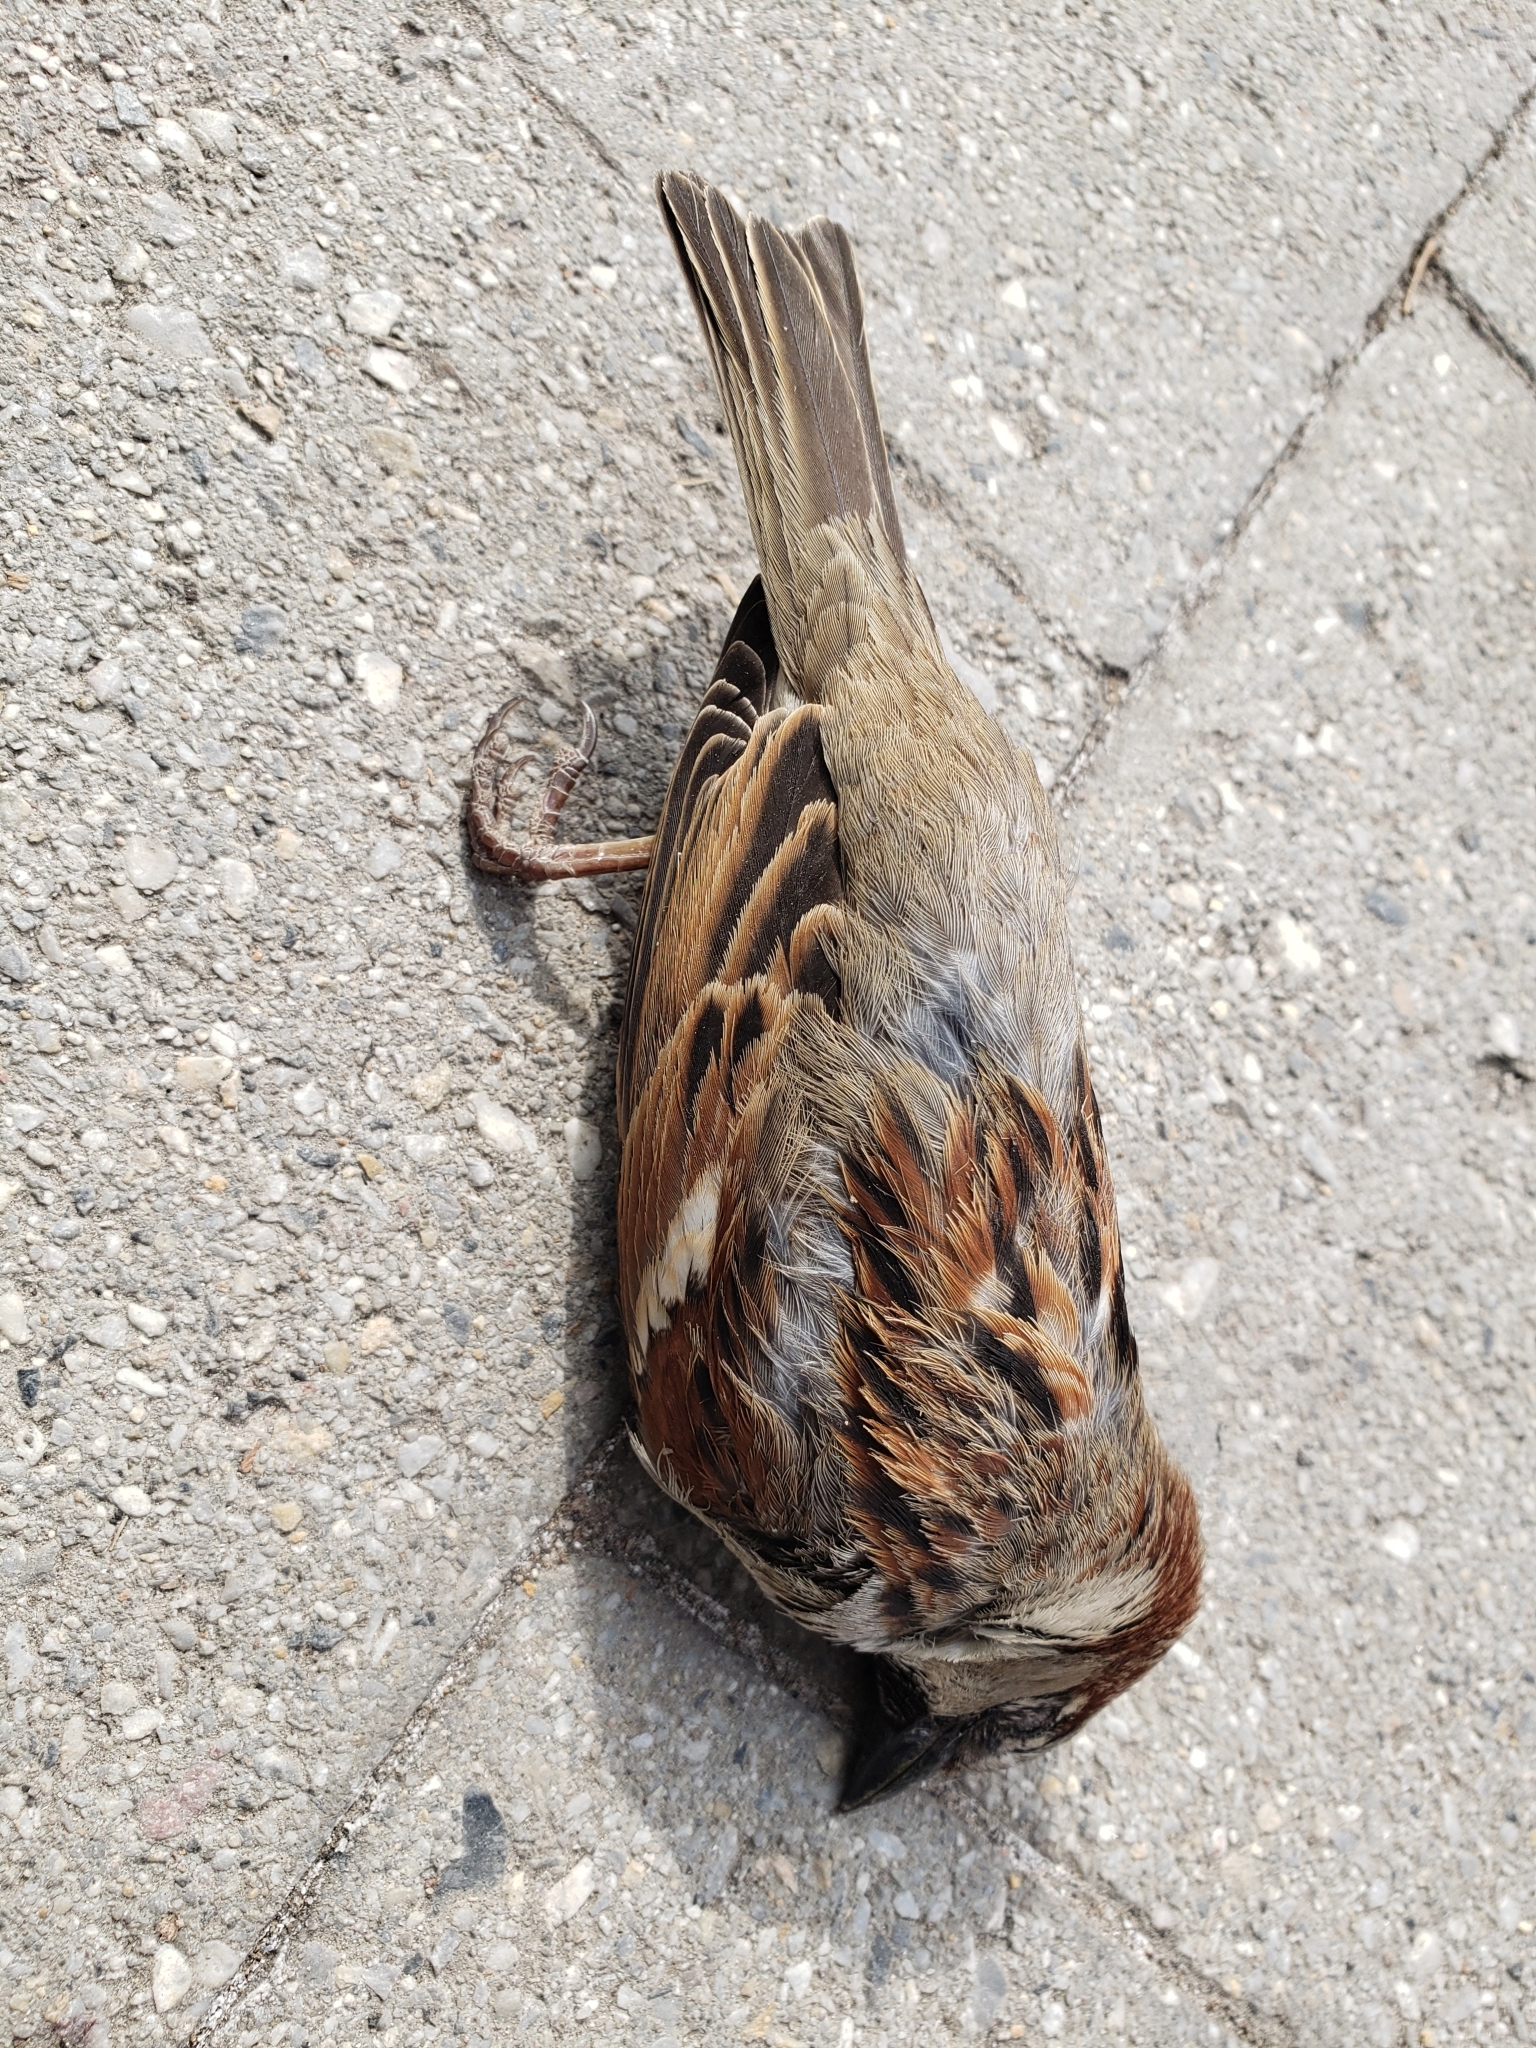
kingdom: Animalia
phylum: Chordata
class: Aves
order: Passeriformes
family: Passeridae
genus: Passer
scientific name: Passer domesticus
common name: House sparrow
